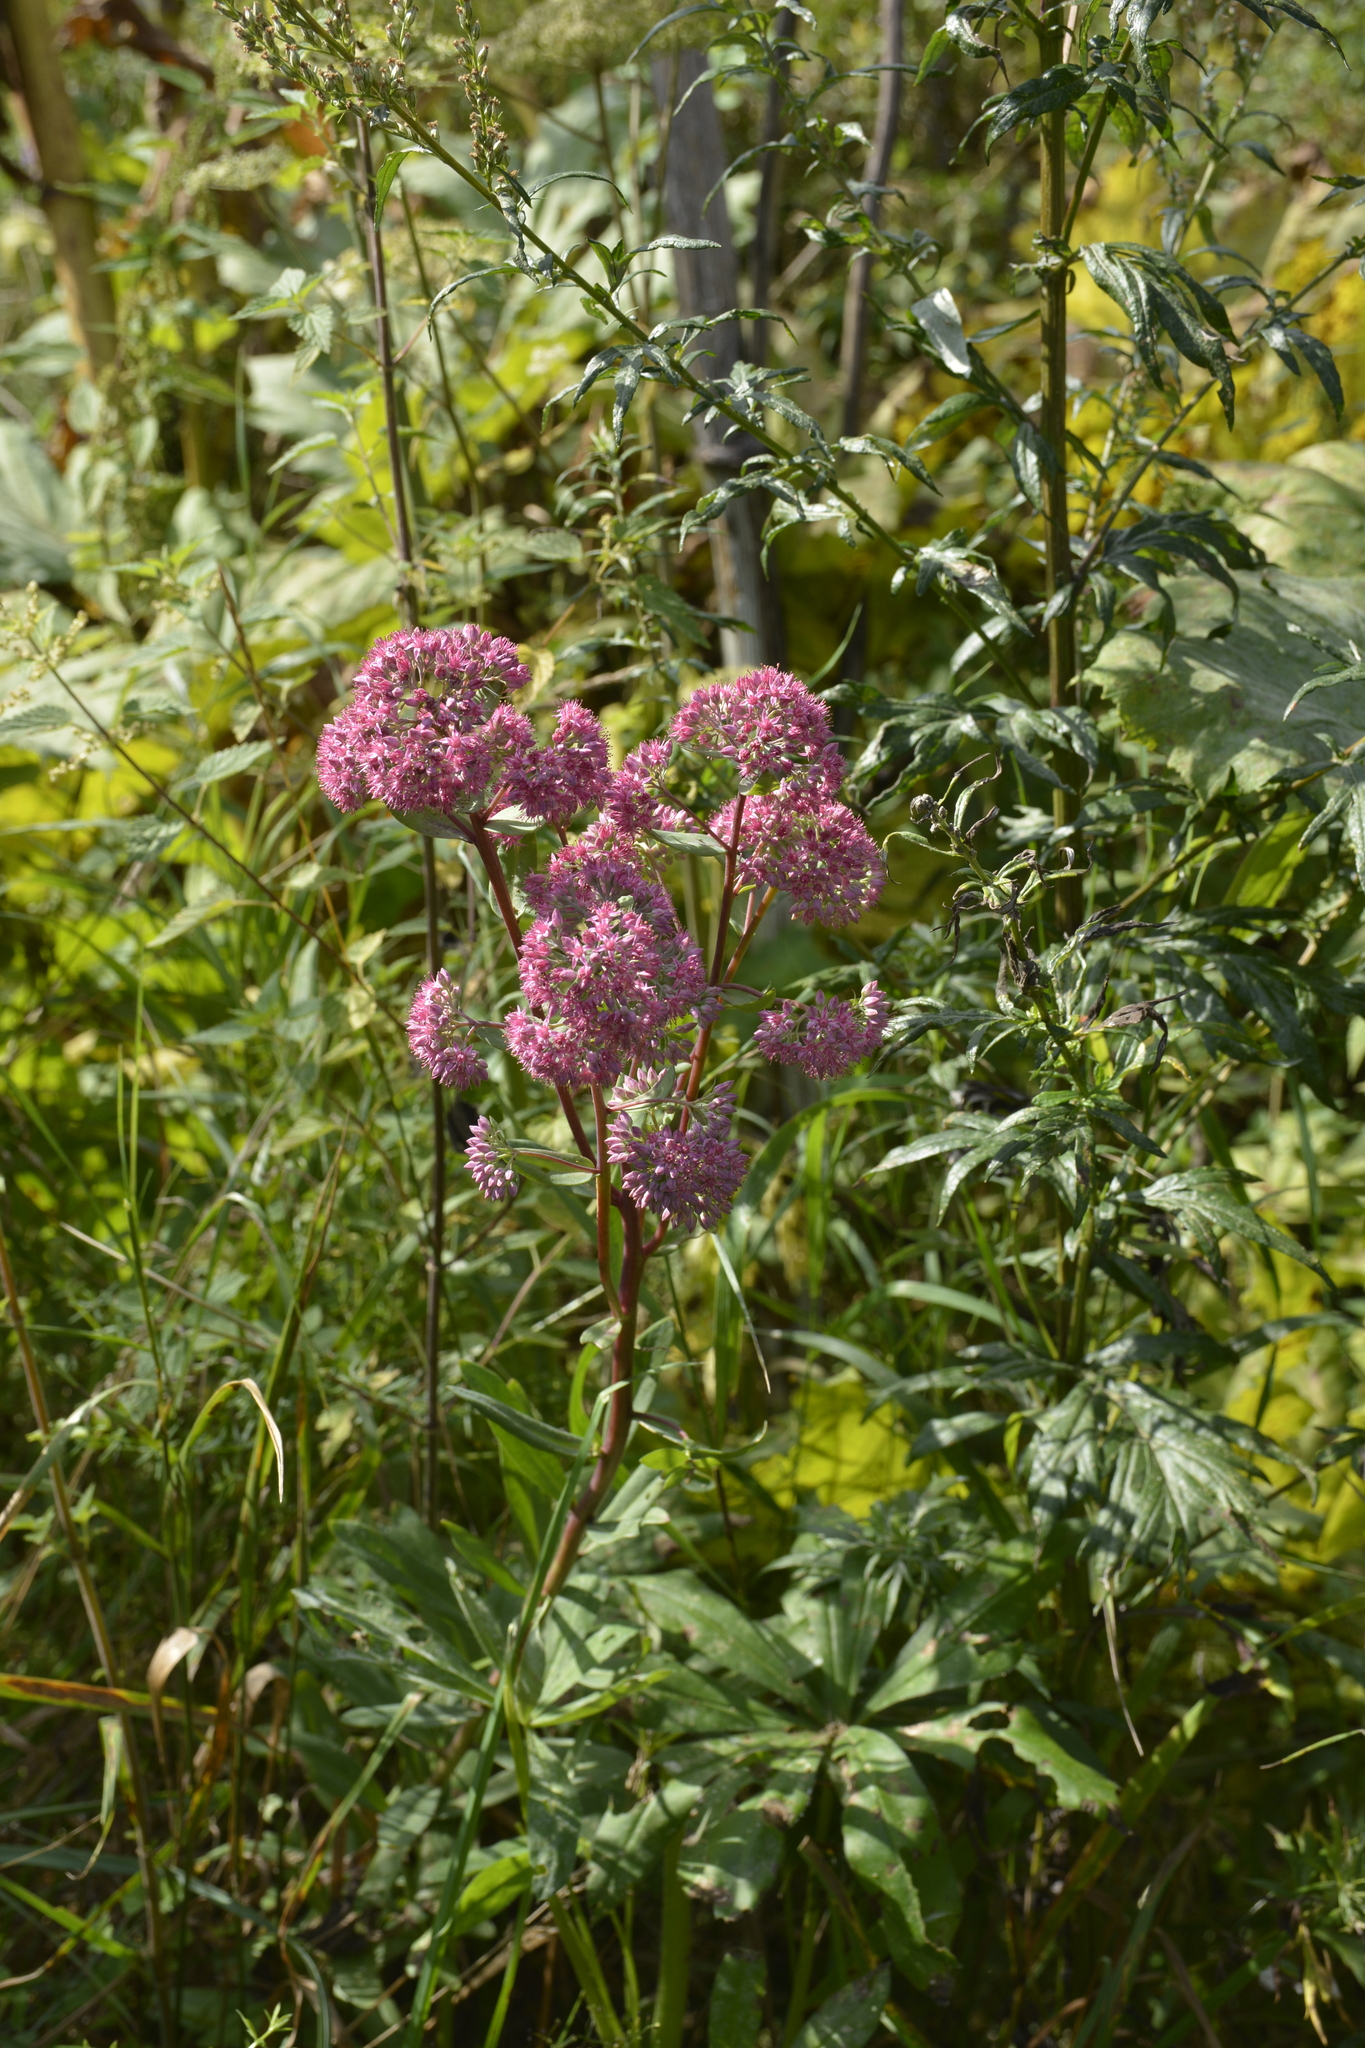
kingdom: Plantae
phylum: Tracheophyta
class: Magnoliopsida
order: Saxifragales
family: Crassulaceae
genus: Hylotelephium
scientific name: Hylotelephium telephium
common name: Live-forever
